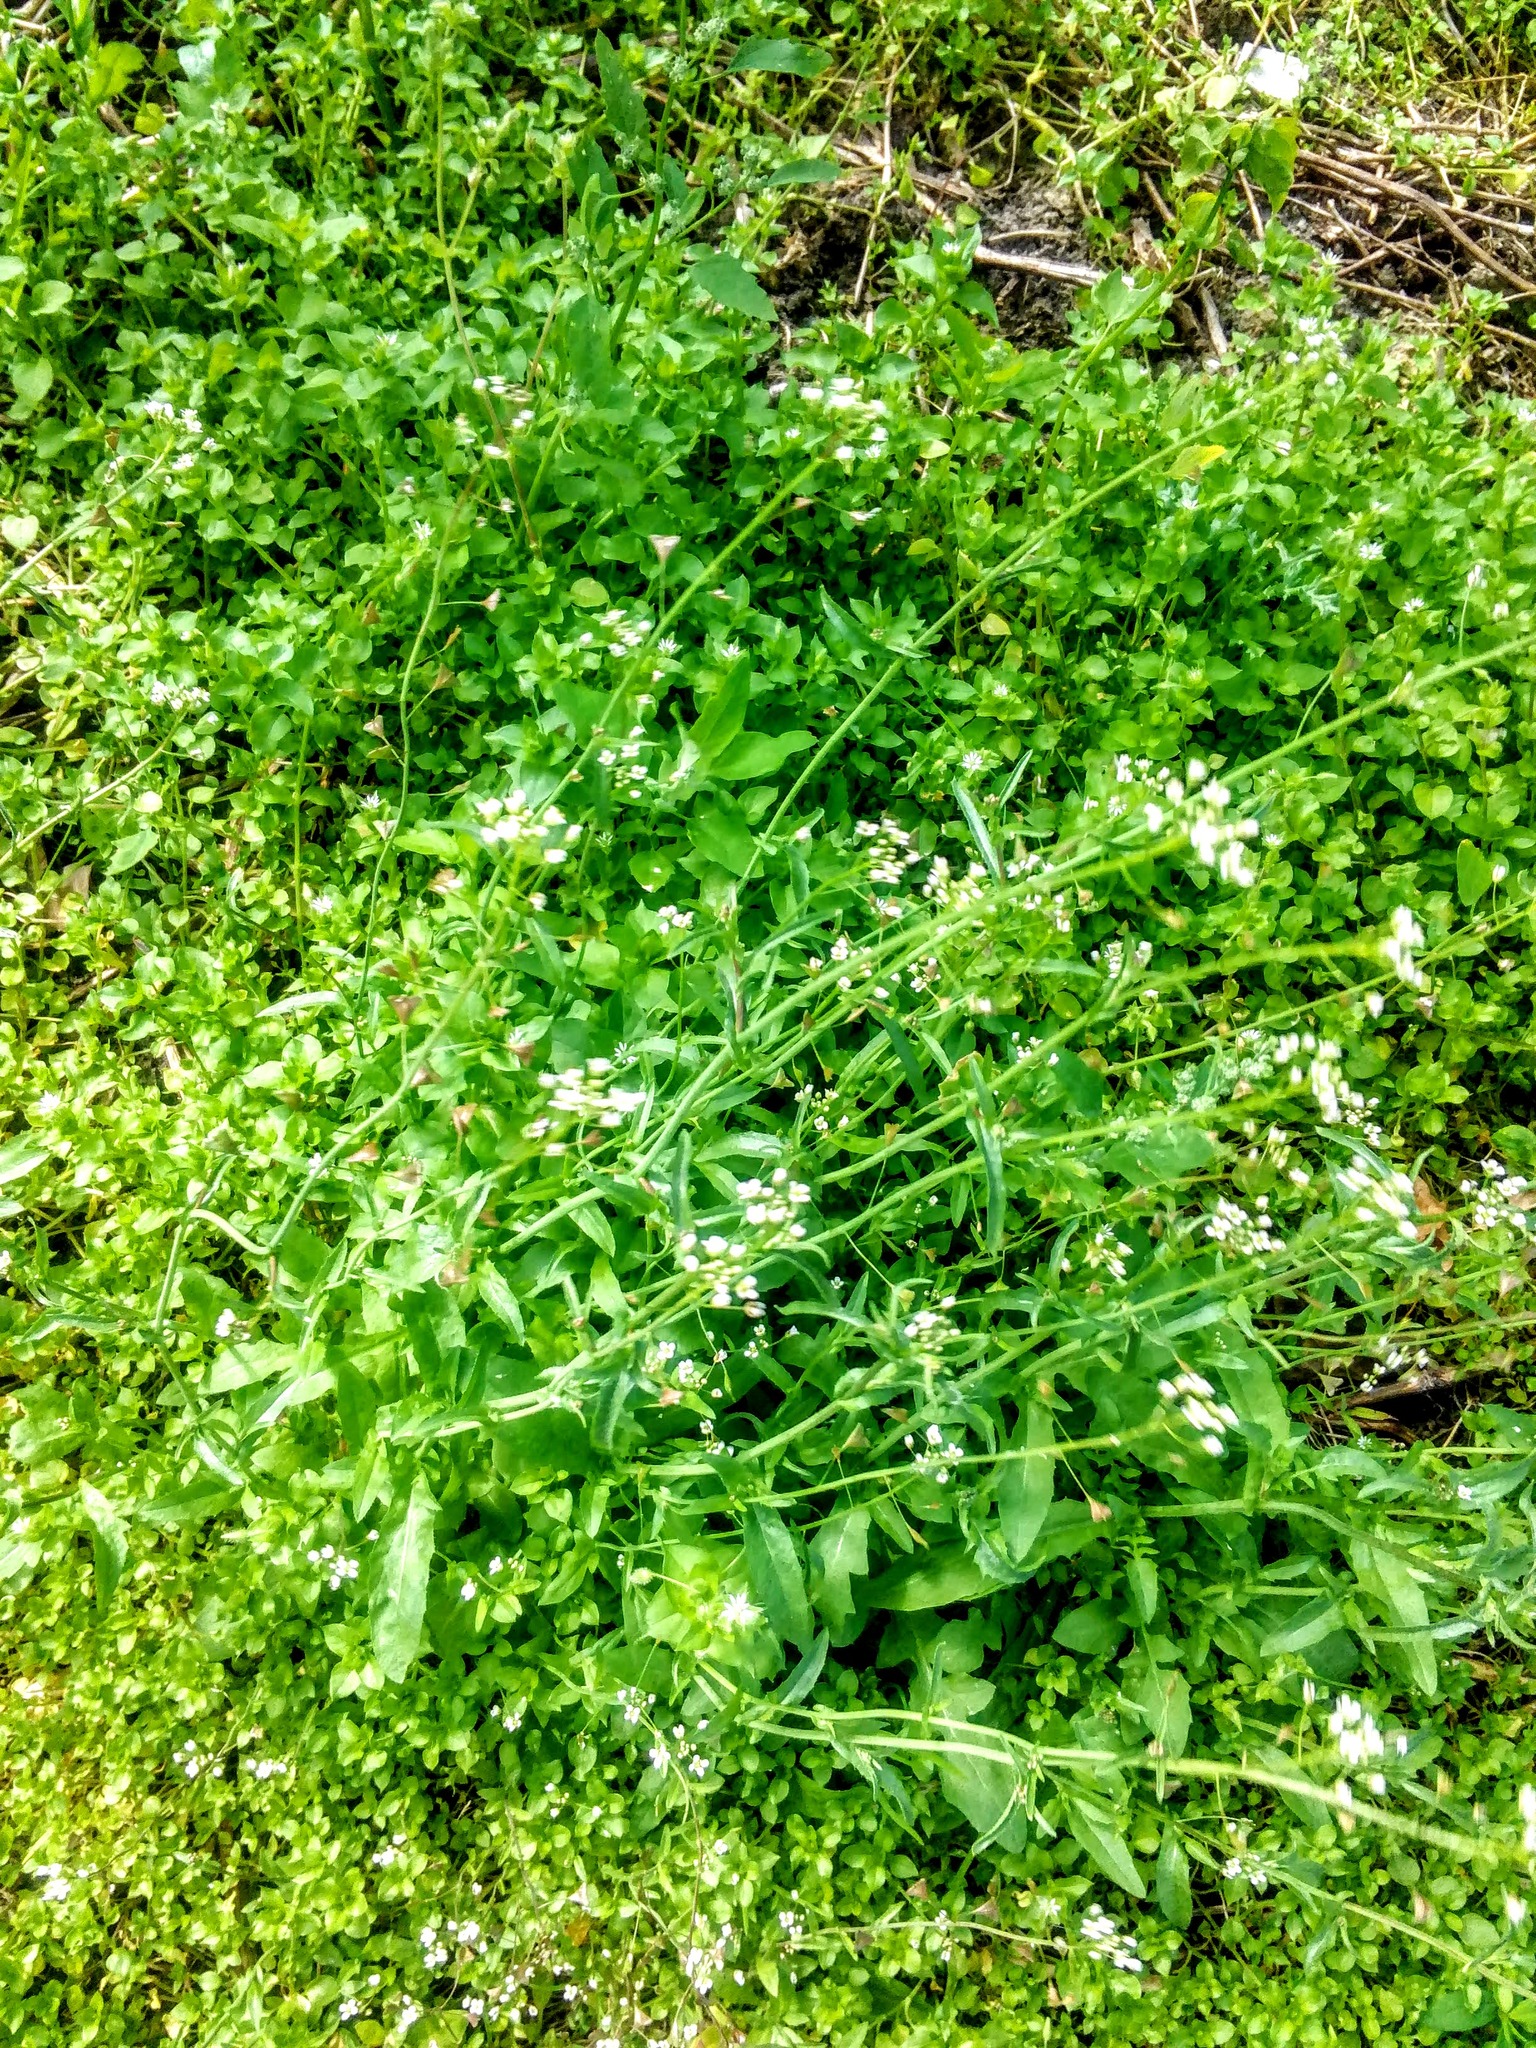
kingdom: Plantae
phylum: Tracheophyta
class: Magnoliopsida
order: Brassicales
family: Brassicaceae
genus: Capsella
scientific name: Capsella bursa-pastoris
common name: Shepherd's purse
